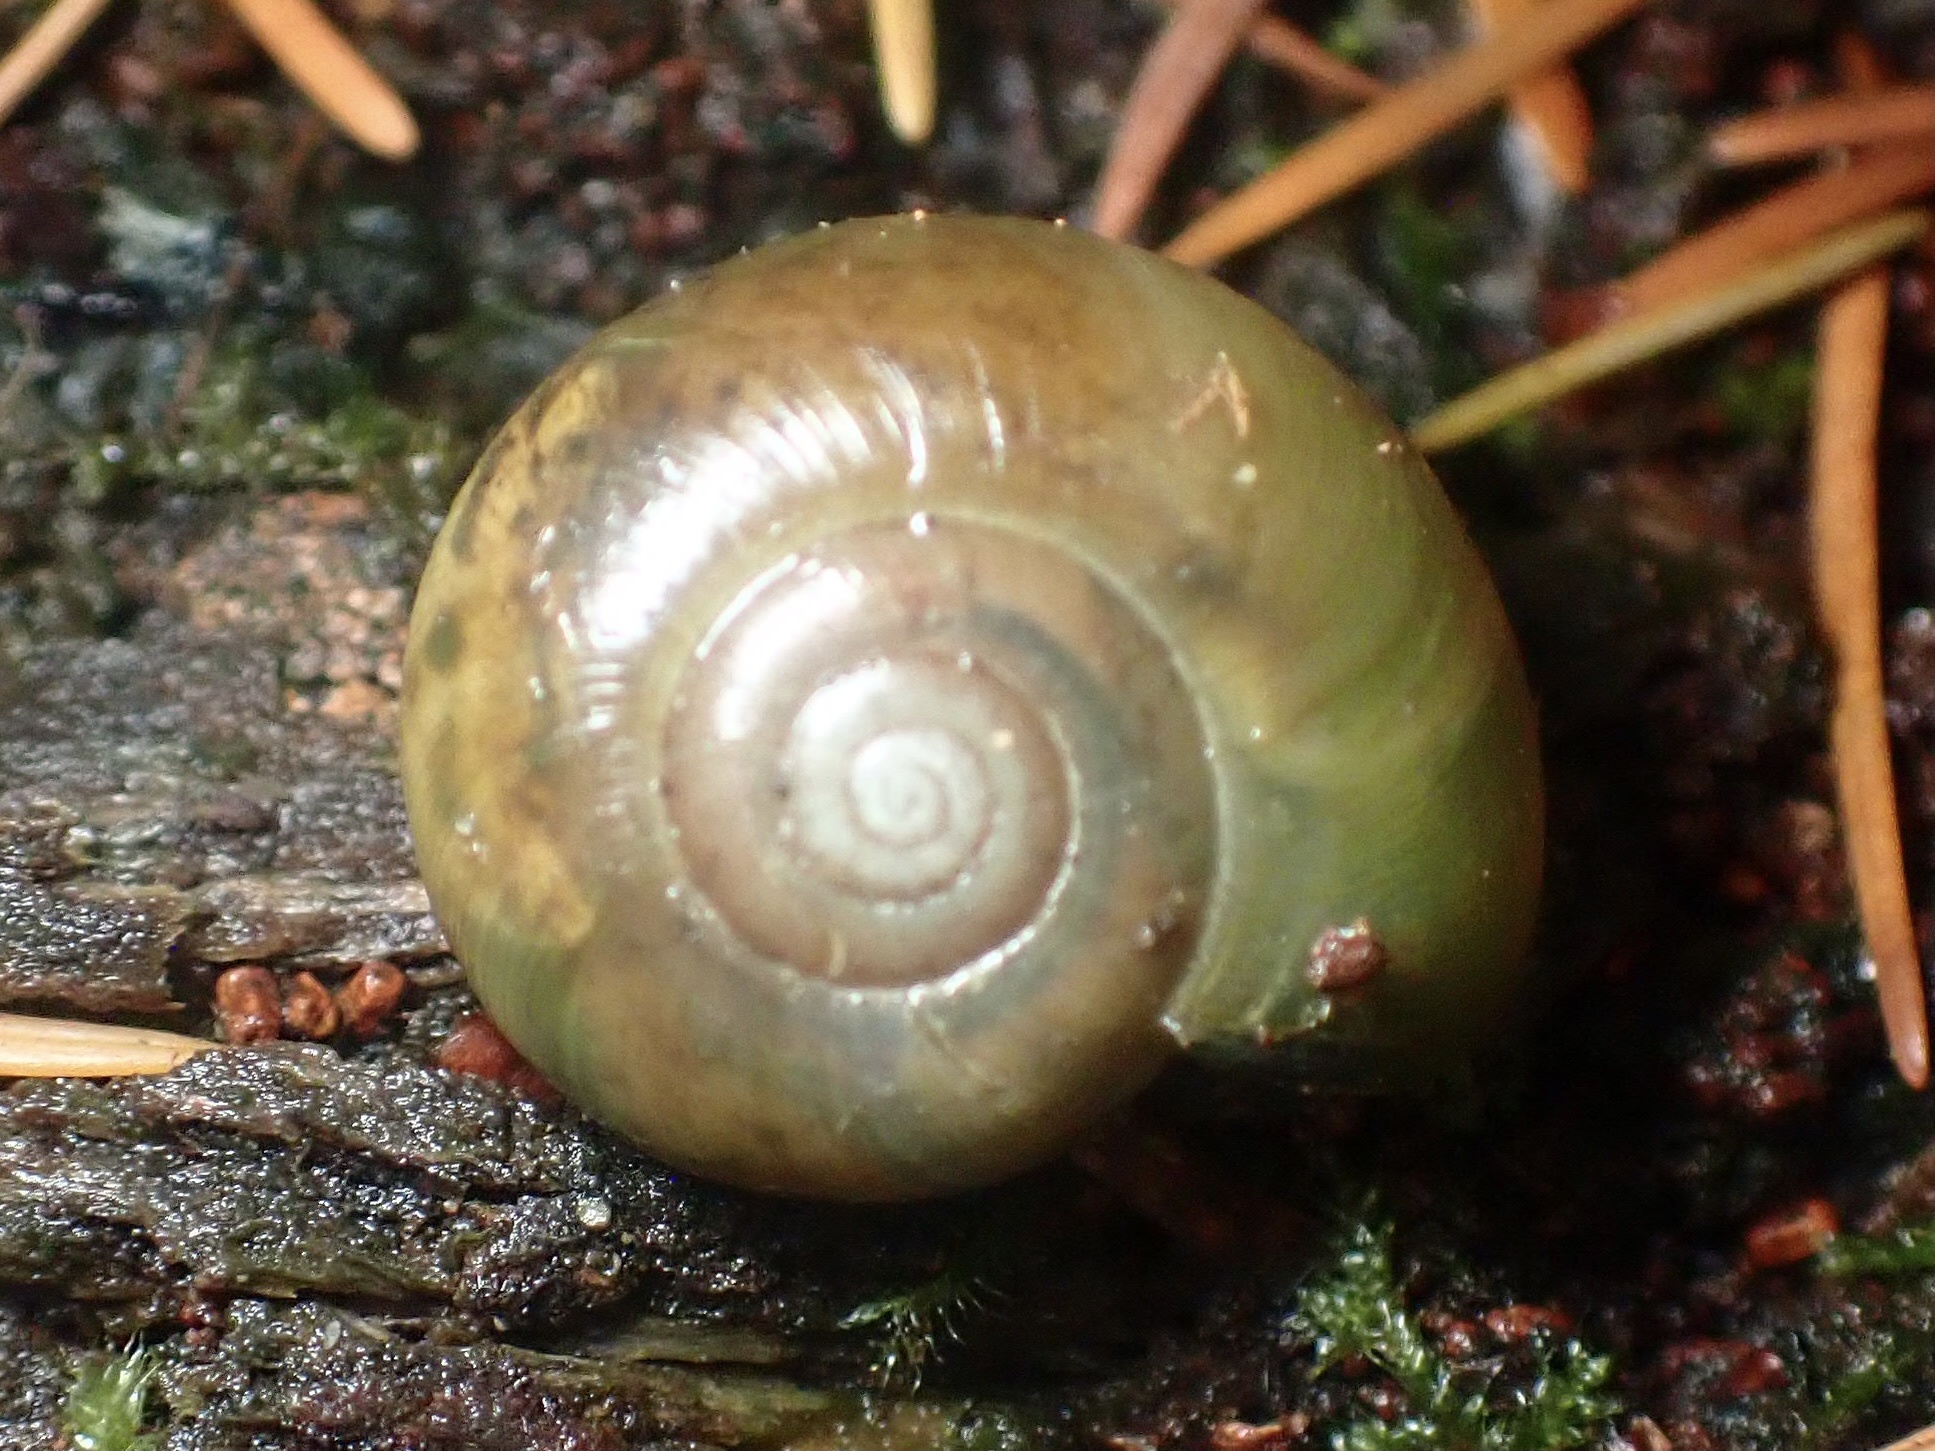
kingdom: Animalia
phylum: Mollusca
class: Gastropoda
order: Stylommatophora
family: Haplotrematidae
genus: Haplotrema
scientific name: Haplotrema vancouverense
